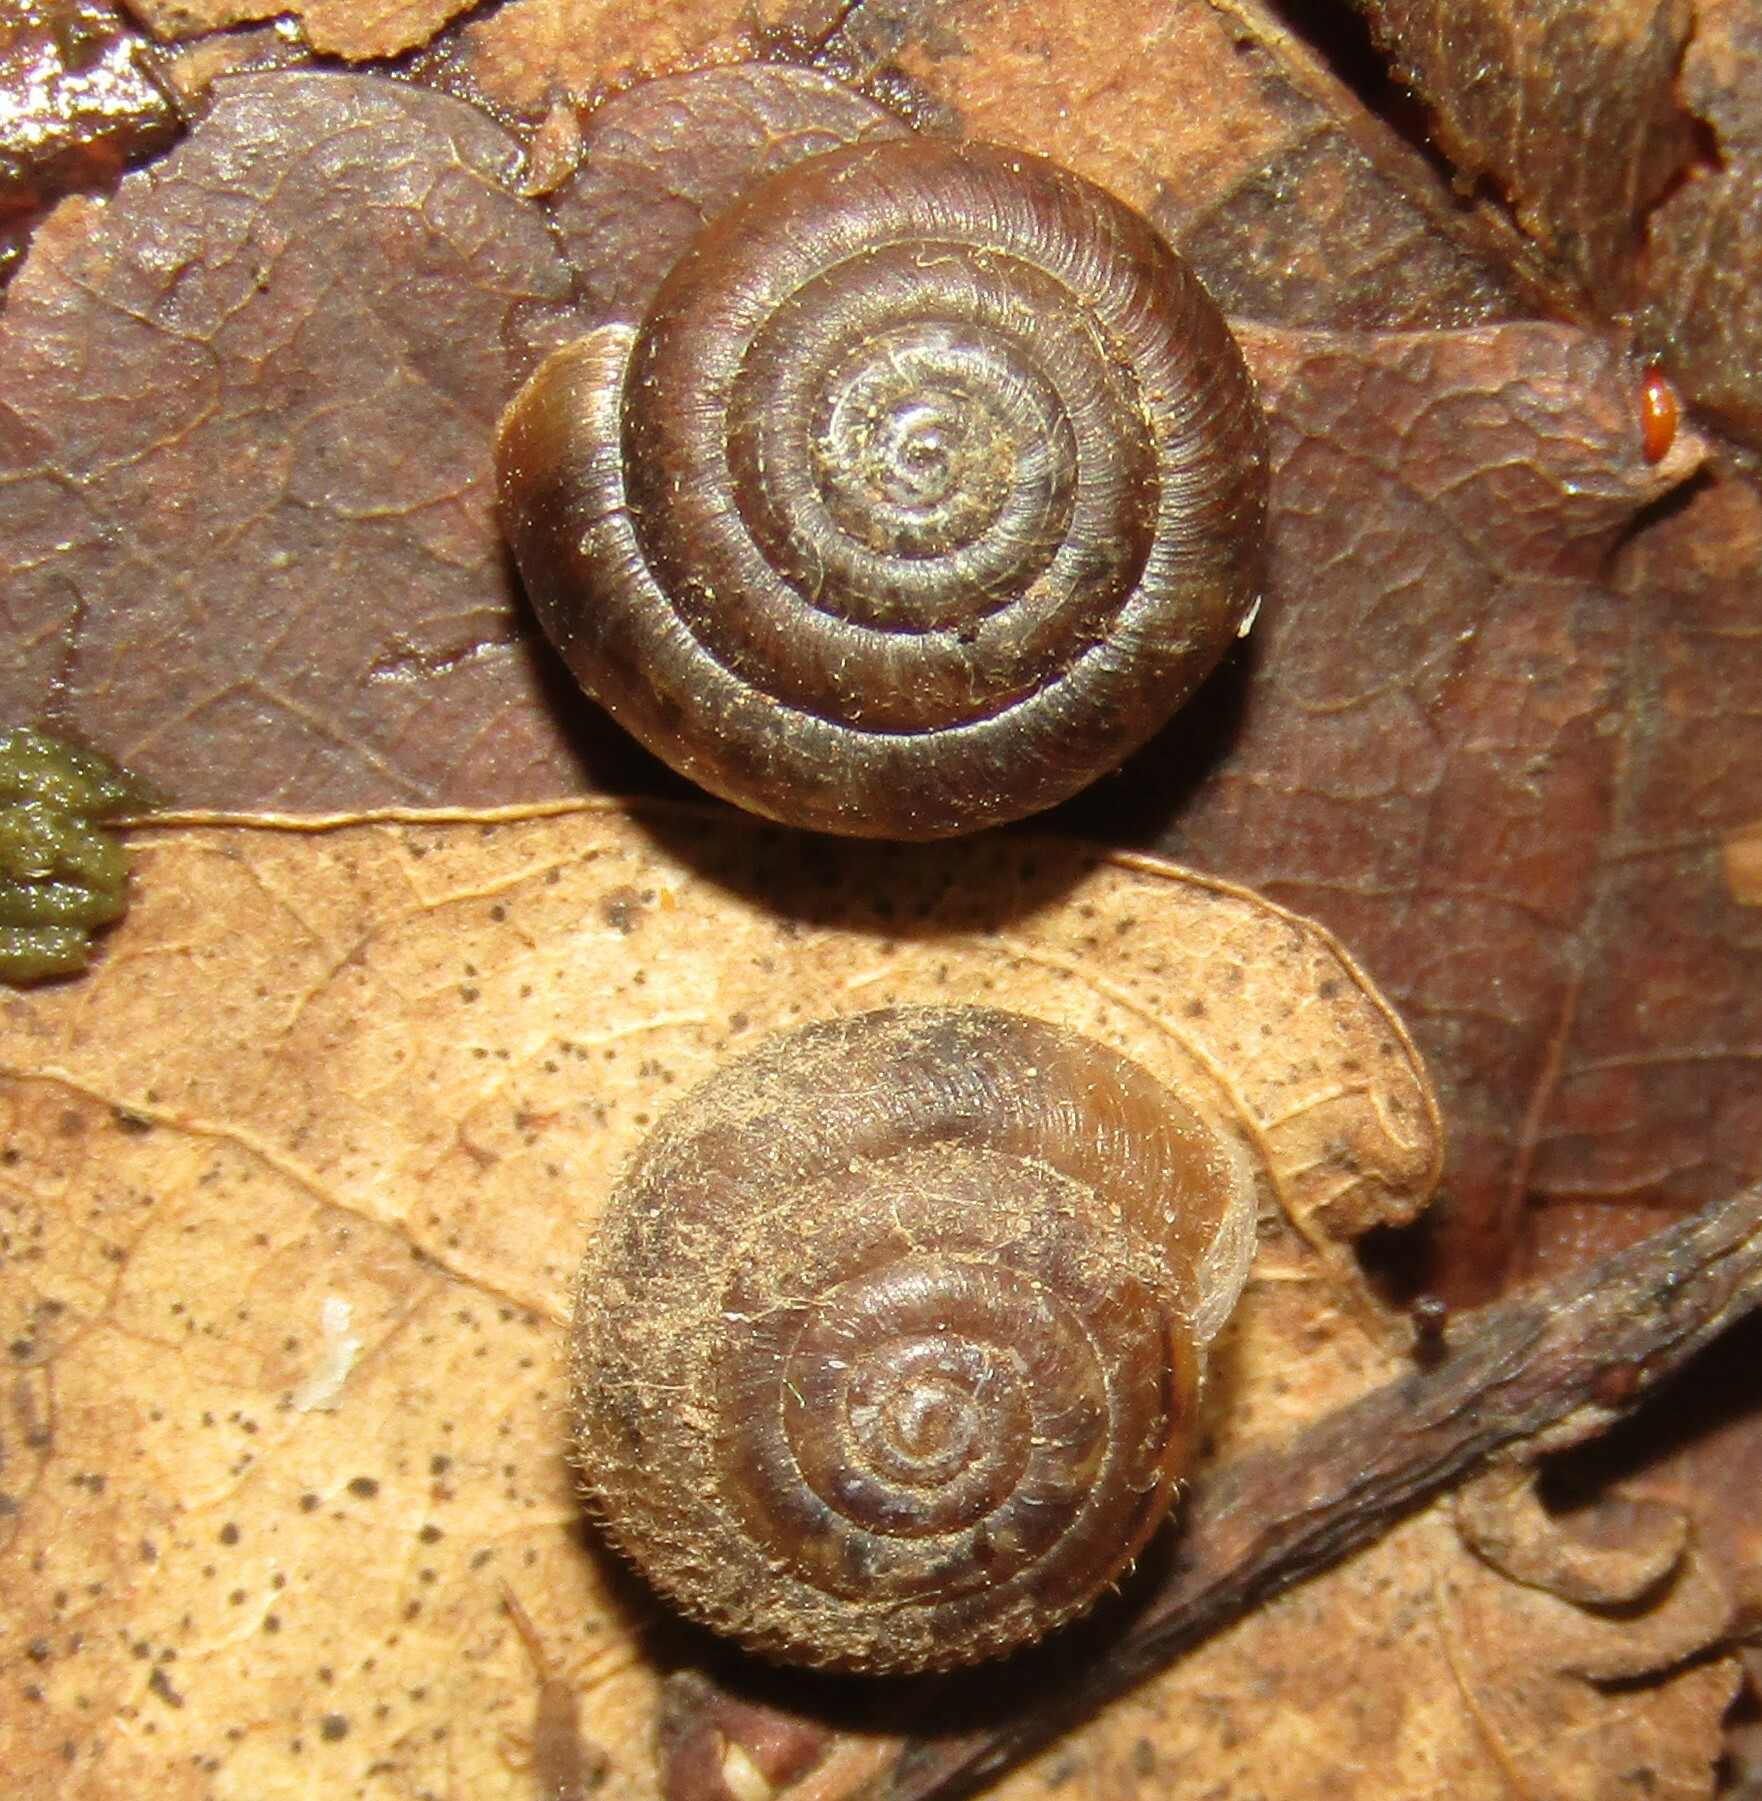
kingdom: Animalia
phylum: Mollusca
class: Gastropoda
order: Stylommatophora
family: Hygromiidae
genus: Trochulus
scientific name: Trochulus hispidus
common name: Hairy snail
